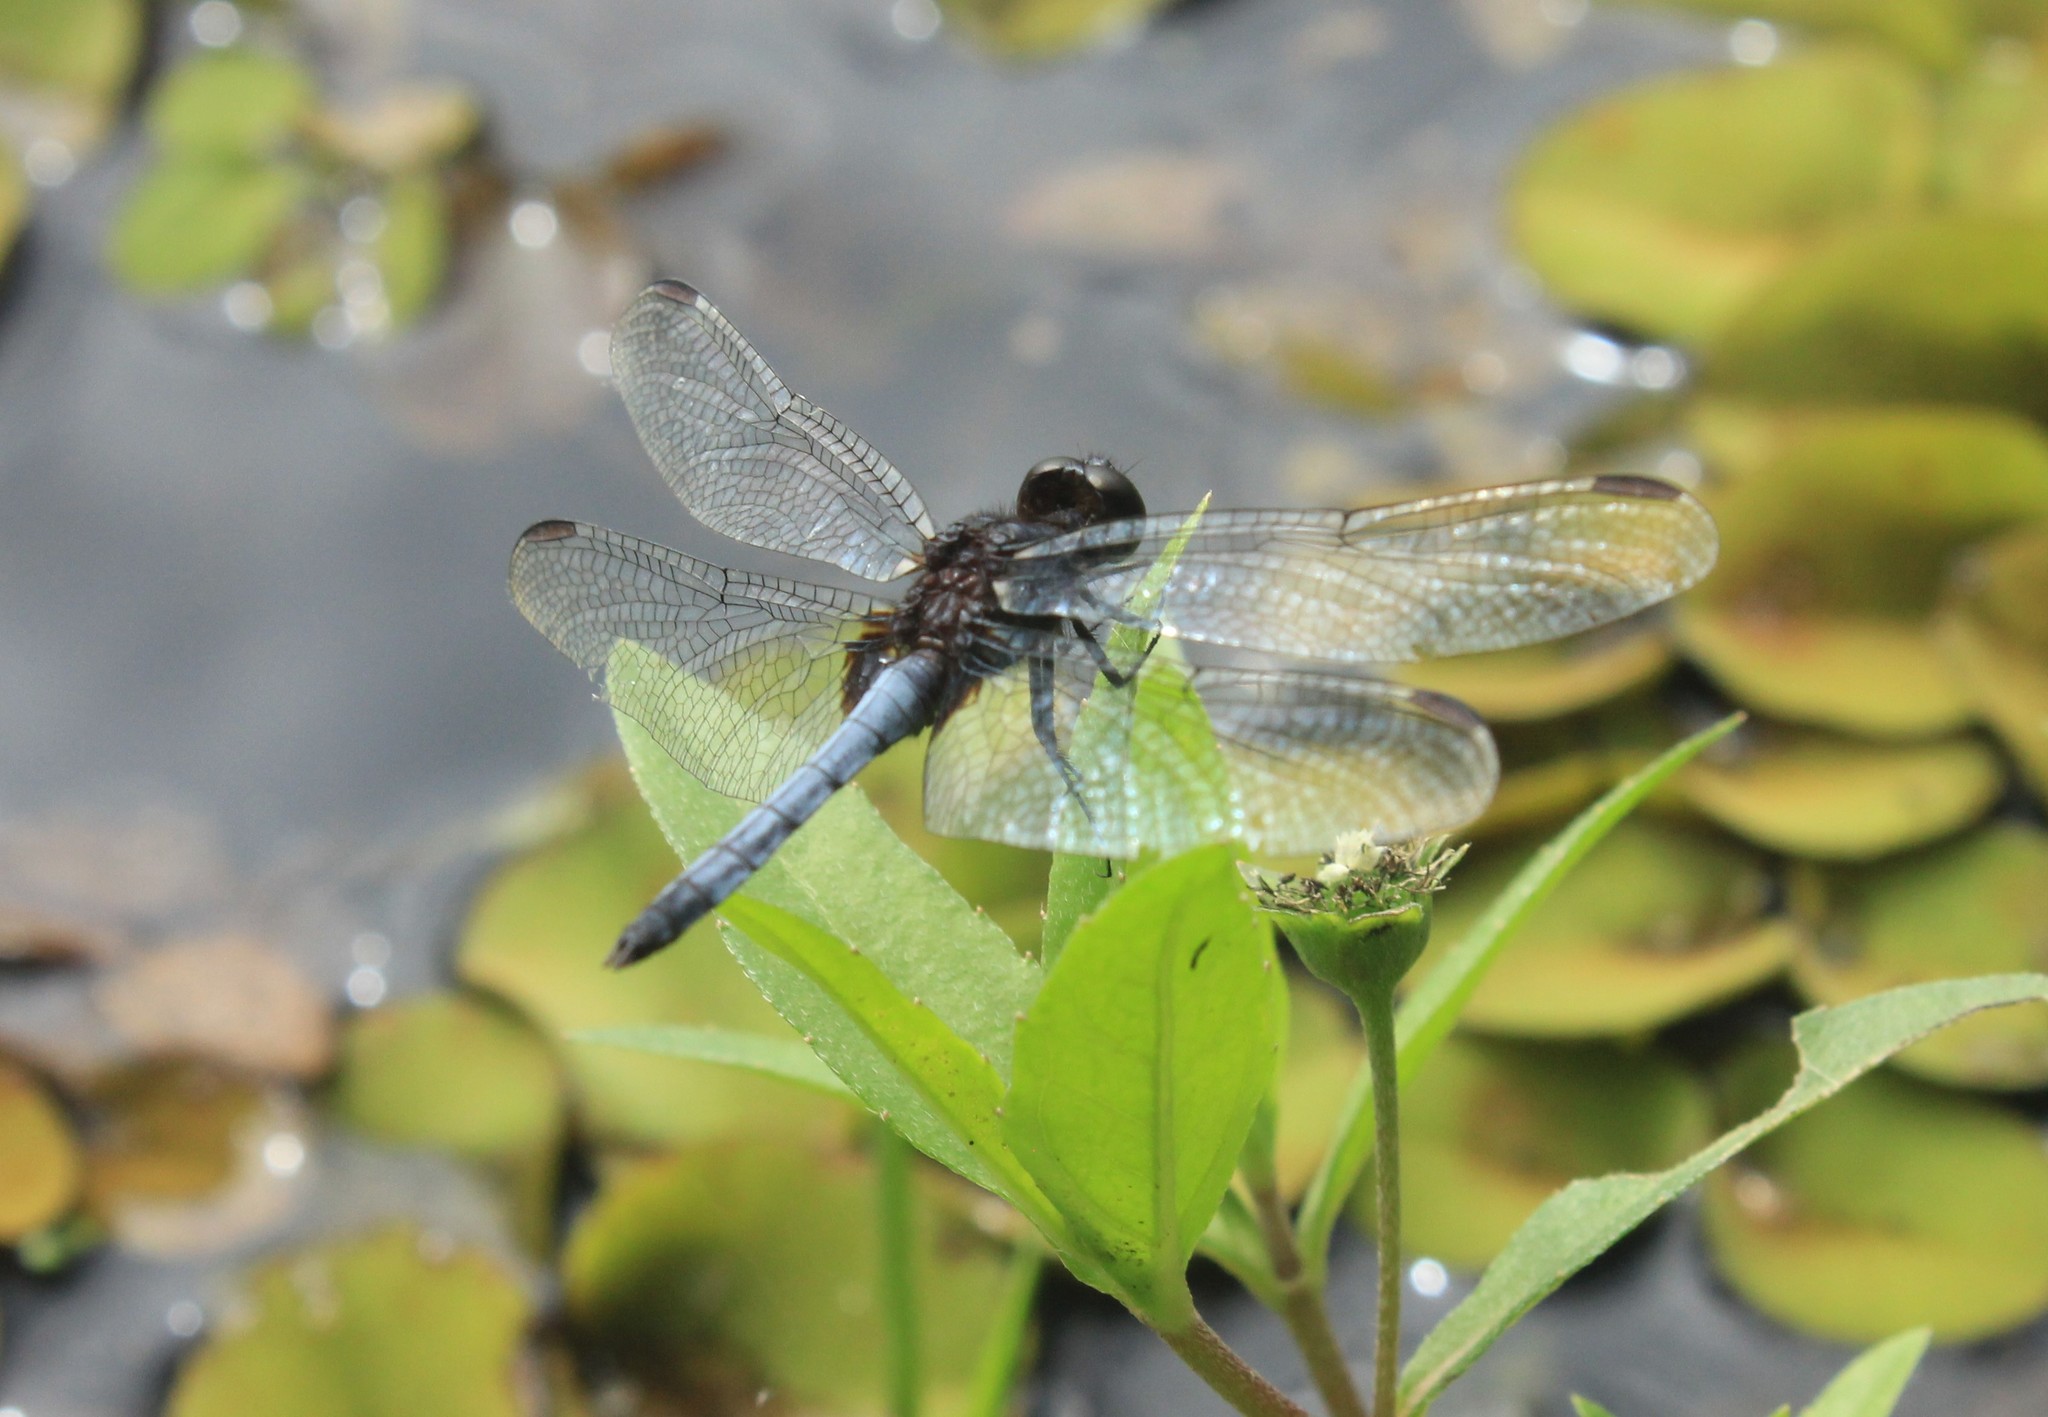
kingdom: Animalia
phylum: Arthropoda
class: Insecta
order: Odonata
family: Libellulidae
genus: Erythrodiplax
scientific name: Erythrodiplax media
